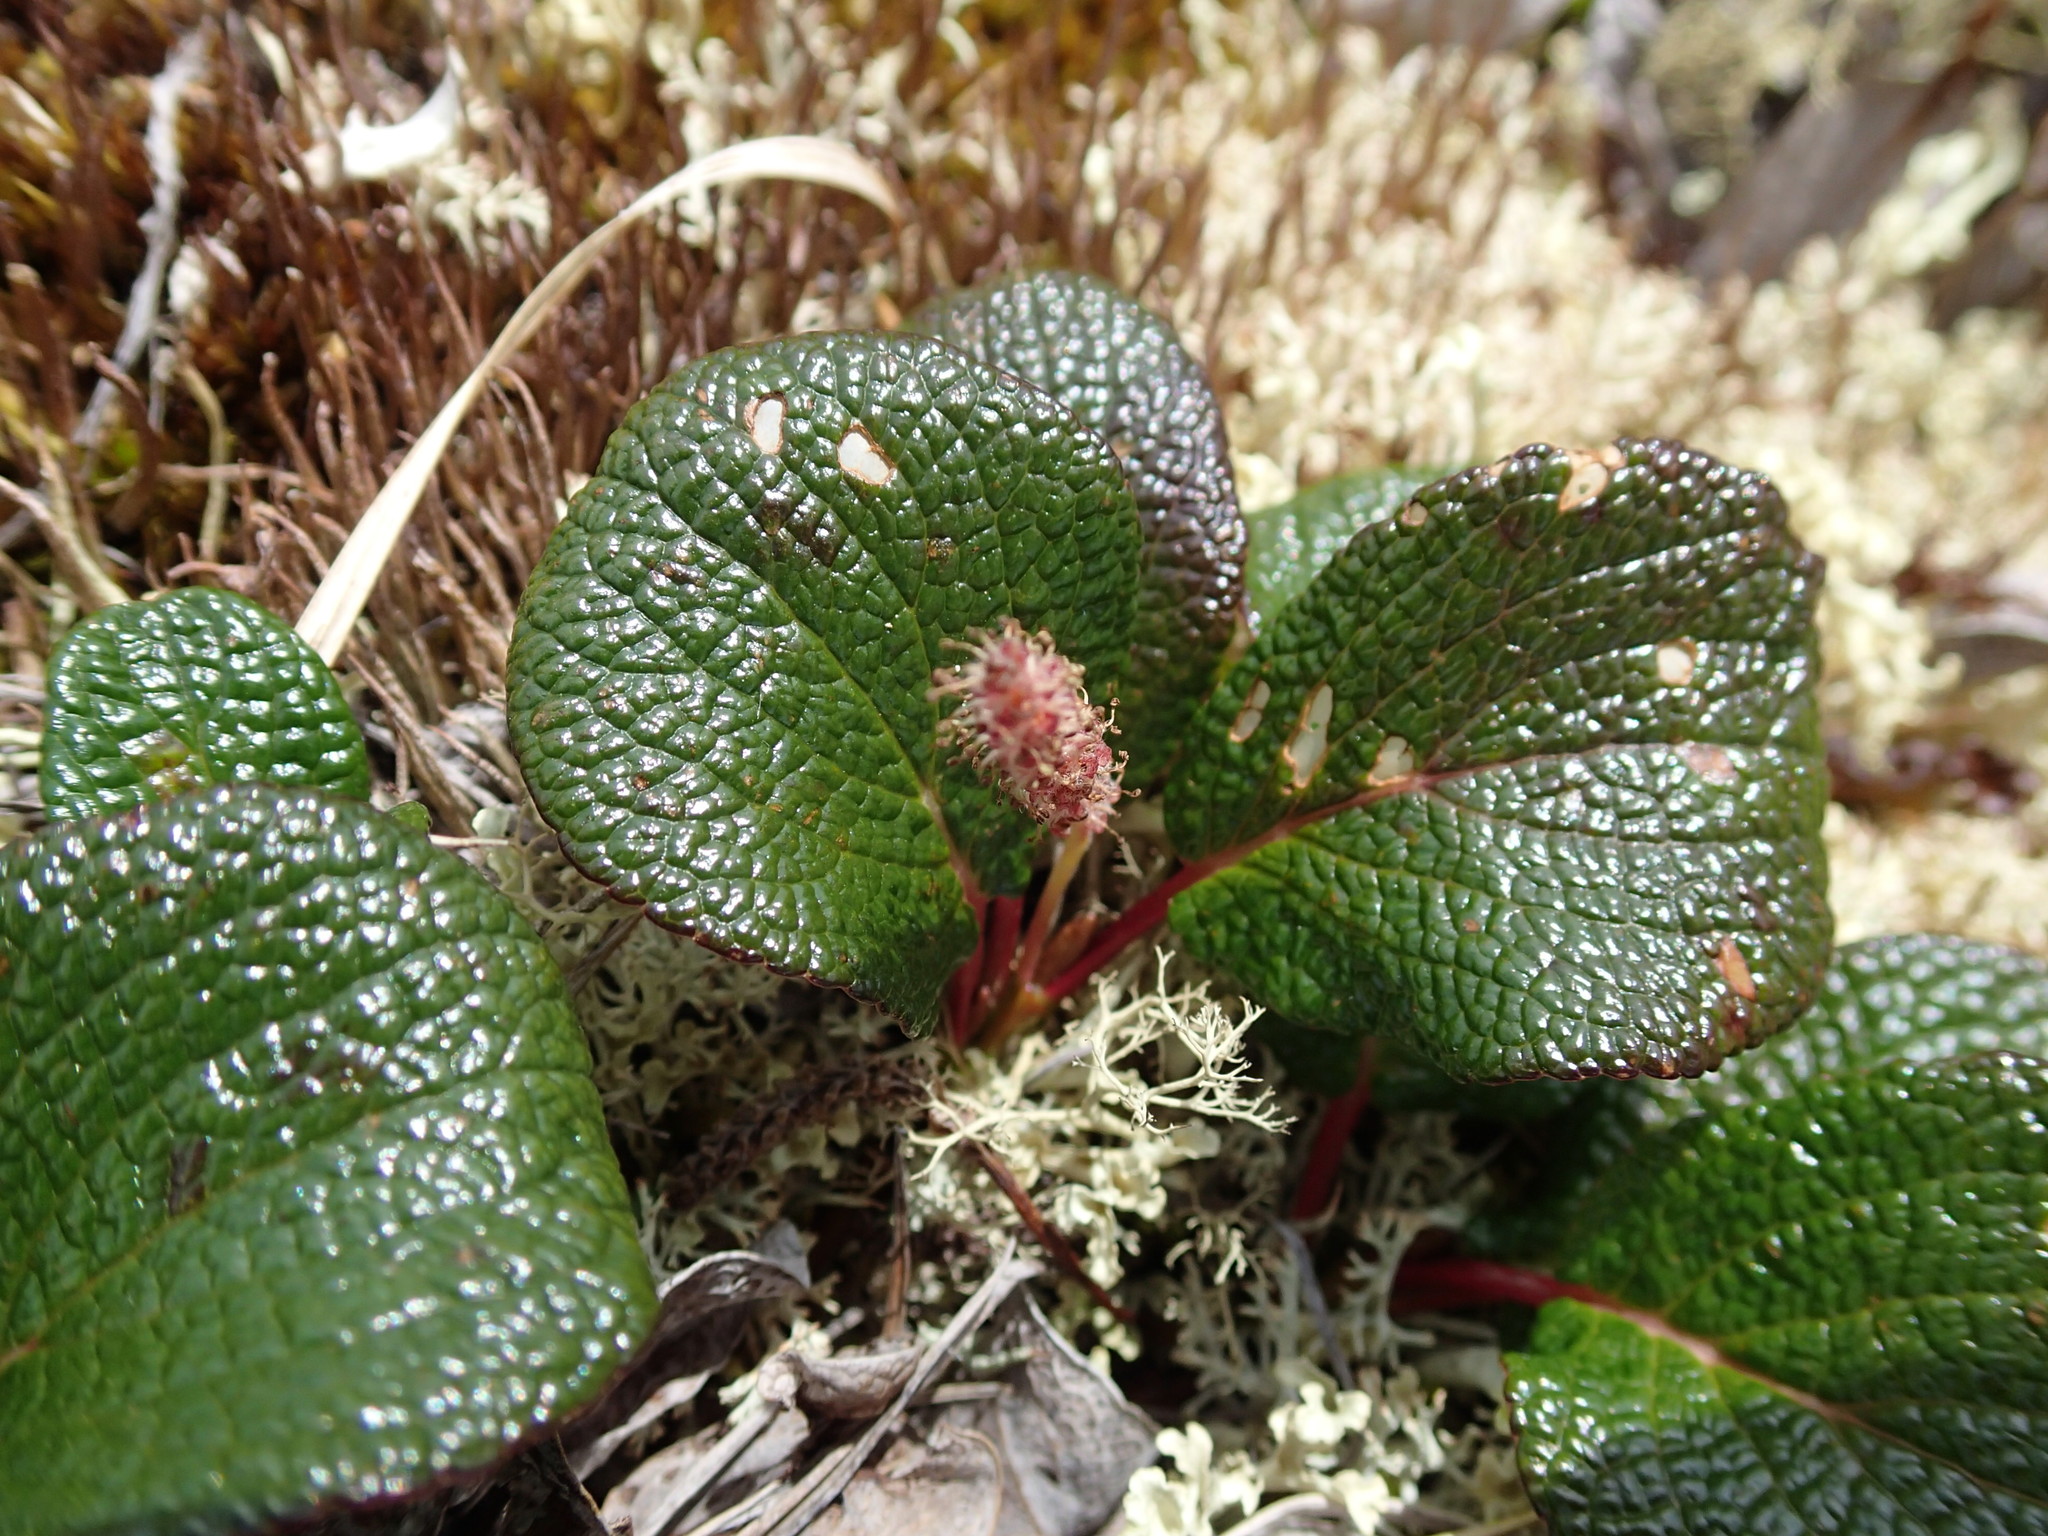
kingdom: Plantae
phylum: Tracheophyta
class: Magnoliopsida
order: Malpighiales
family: Salicaceae
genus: Salix
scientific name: Salix reticulata
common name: Net-leaved willow
